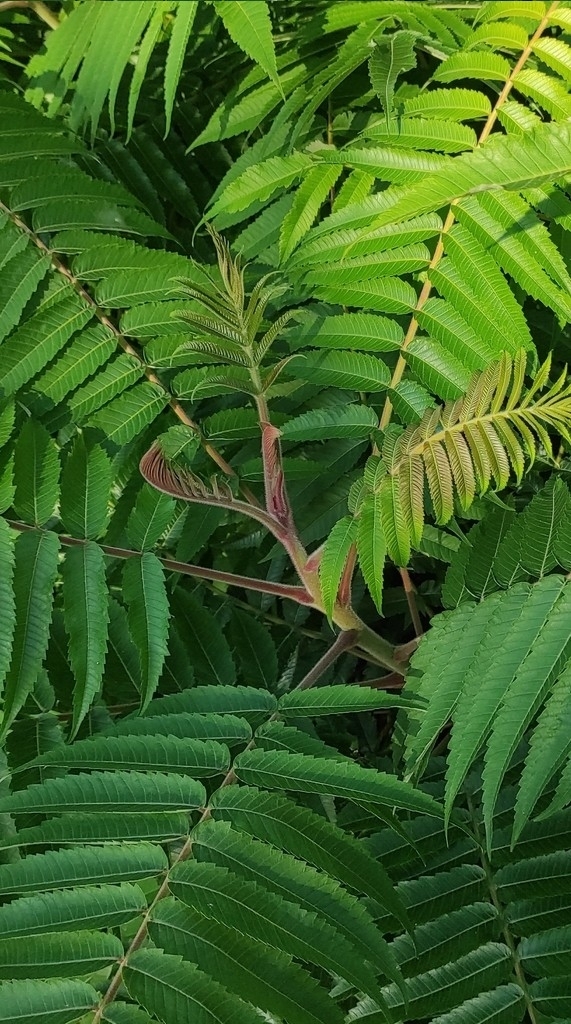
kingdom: Plantae
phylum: Tracheophyta
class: Magnoliopsida
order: Sapindales
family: Anacardiaceae
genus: Rhus
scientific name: Rhus typhina
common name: Staghorn sumac
